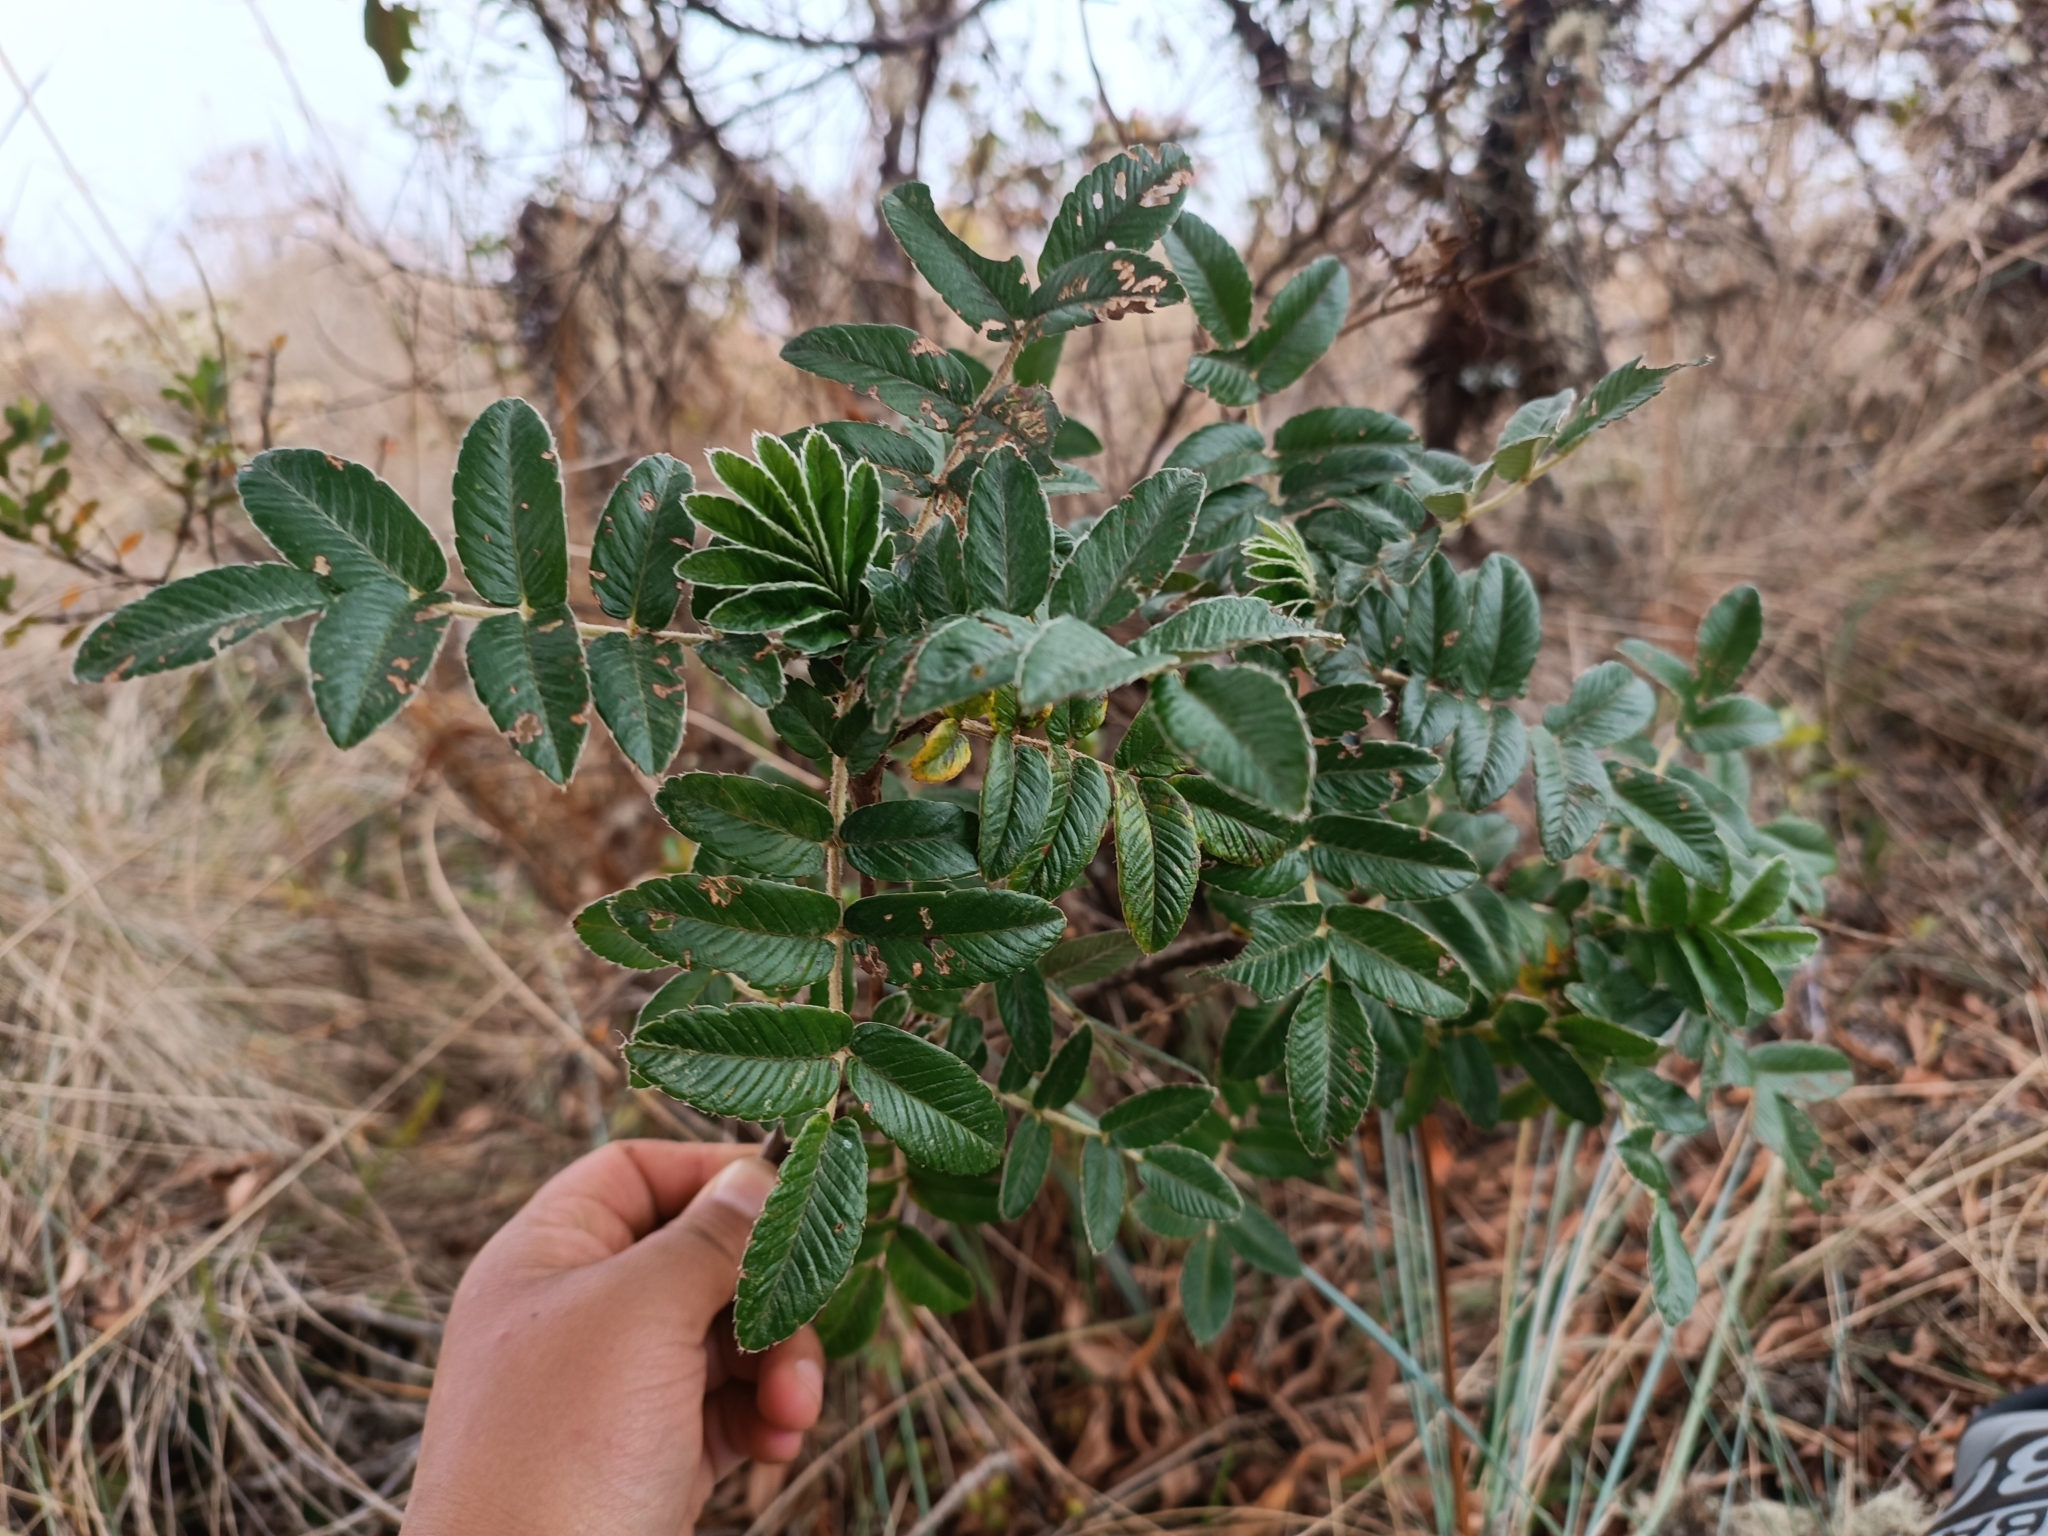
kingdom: Plantae
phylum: Tracheophyta
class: Magnoliopsida
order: Rosales
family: Rosaceae
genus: Polylepis
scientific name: Polylepis serrata
